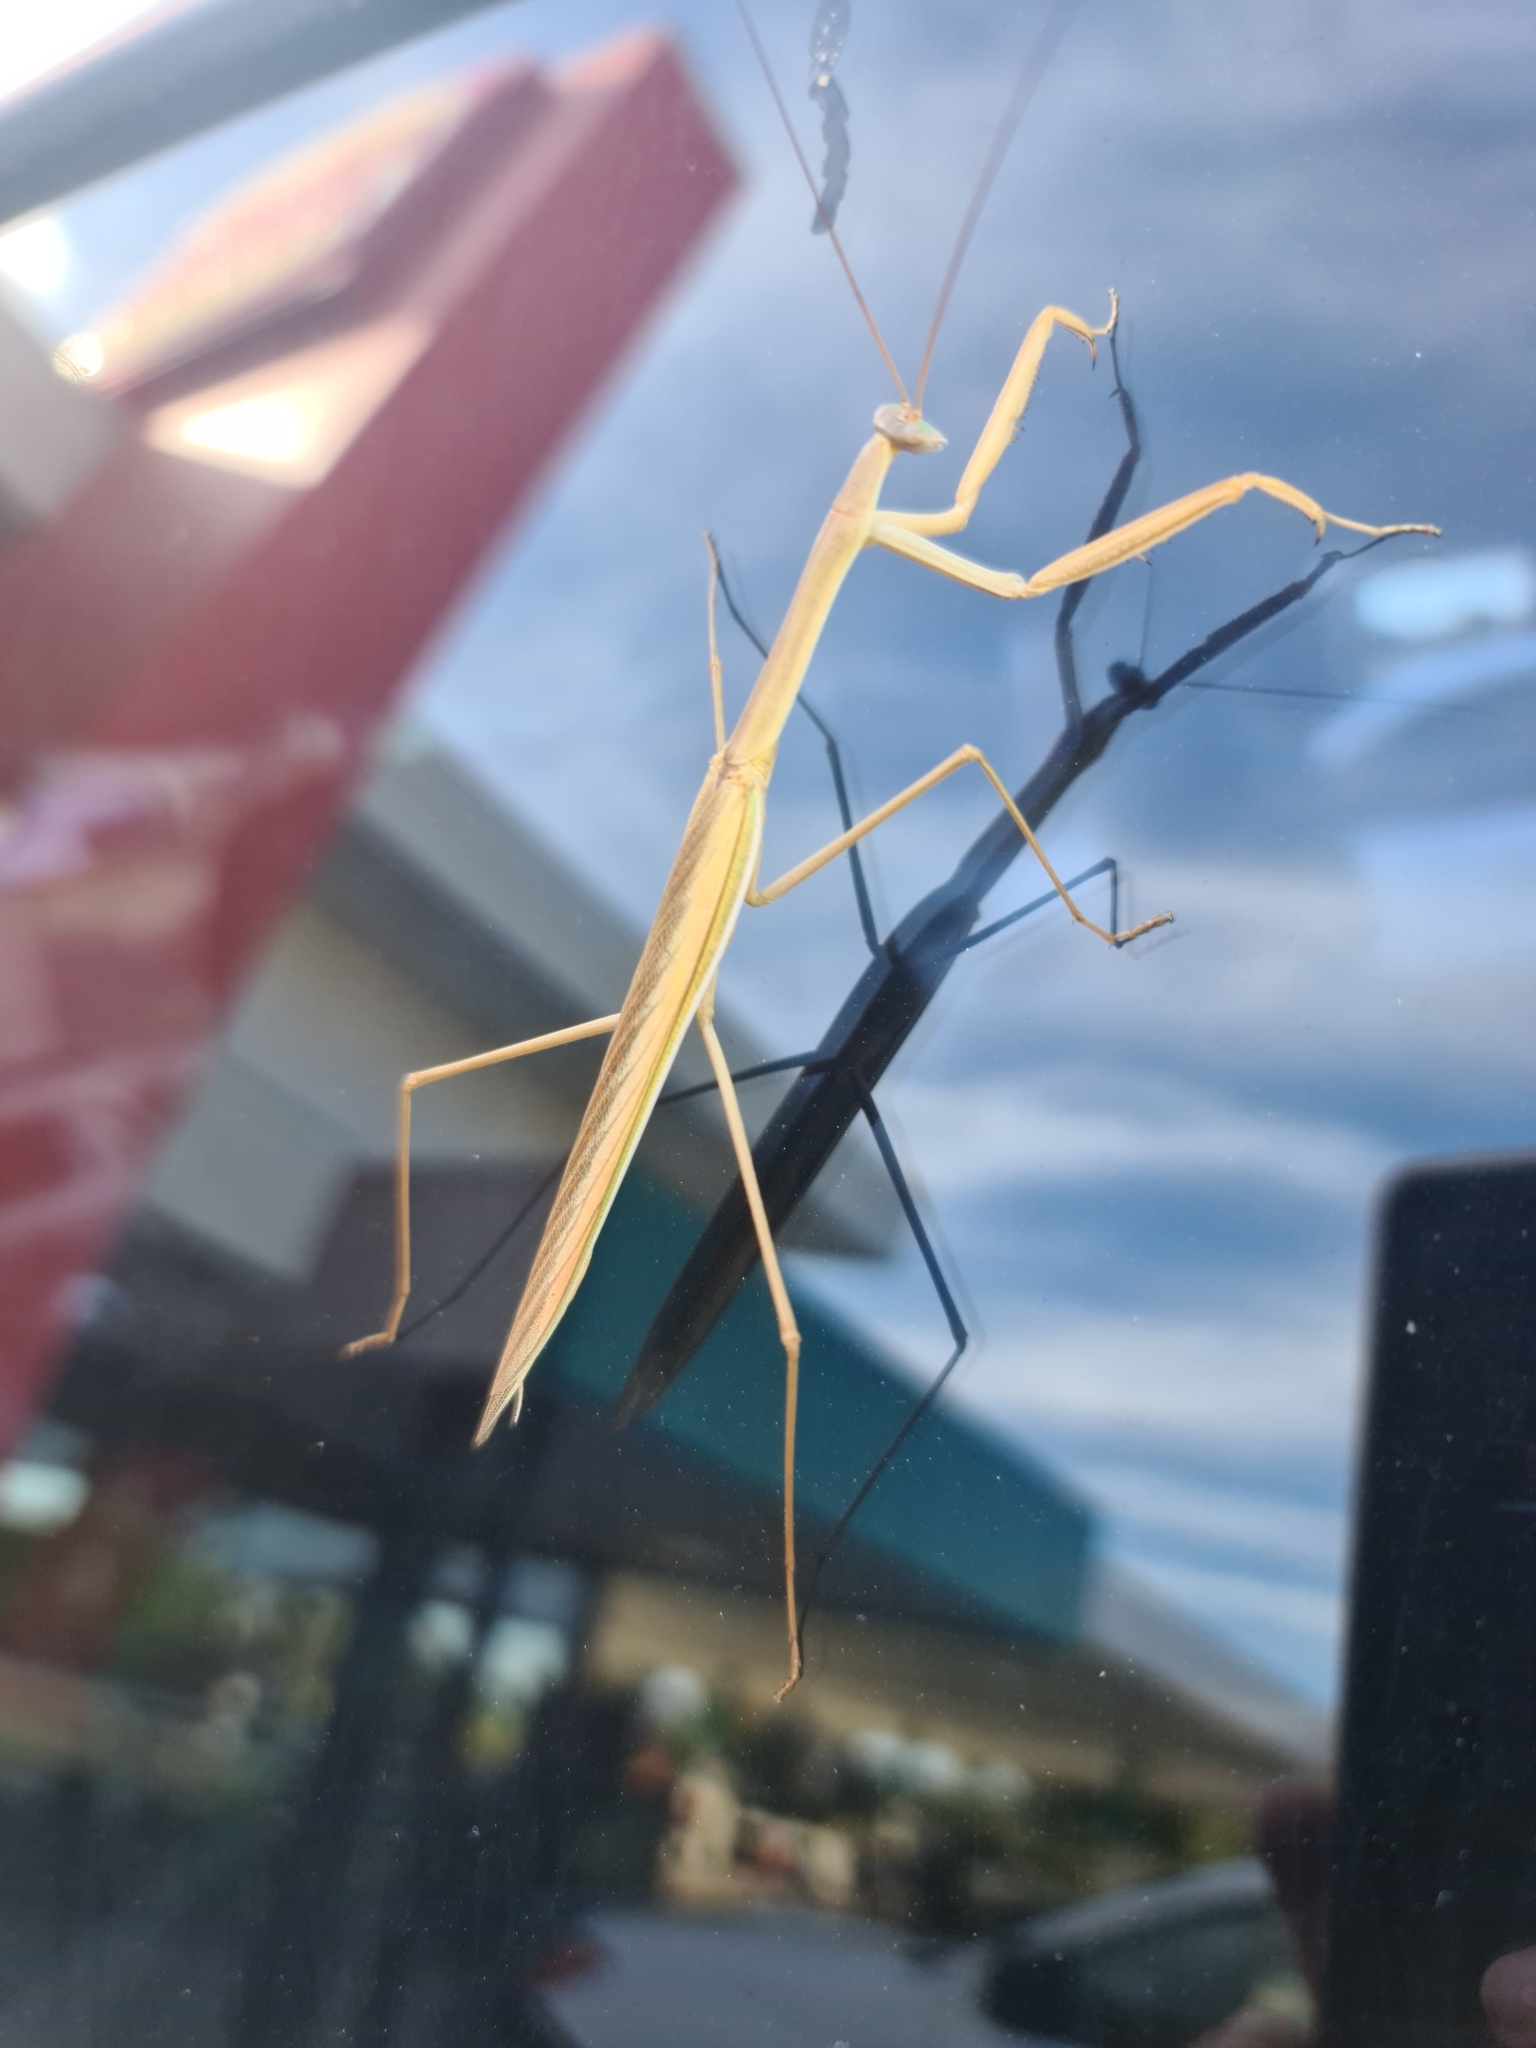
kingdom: Animalia
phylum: Arthropoda
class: Insecta
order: Mantodea
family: Mantidae
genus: Tenodera
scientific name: Tenodera australasiae
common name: Purple-winged mantis
